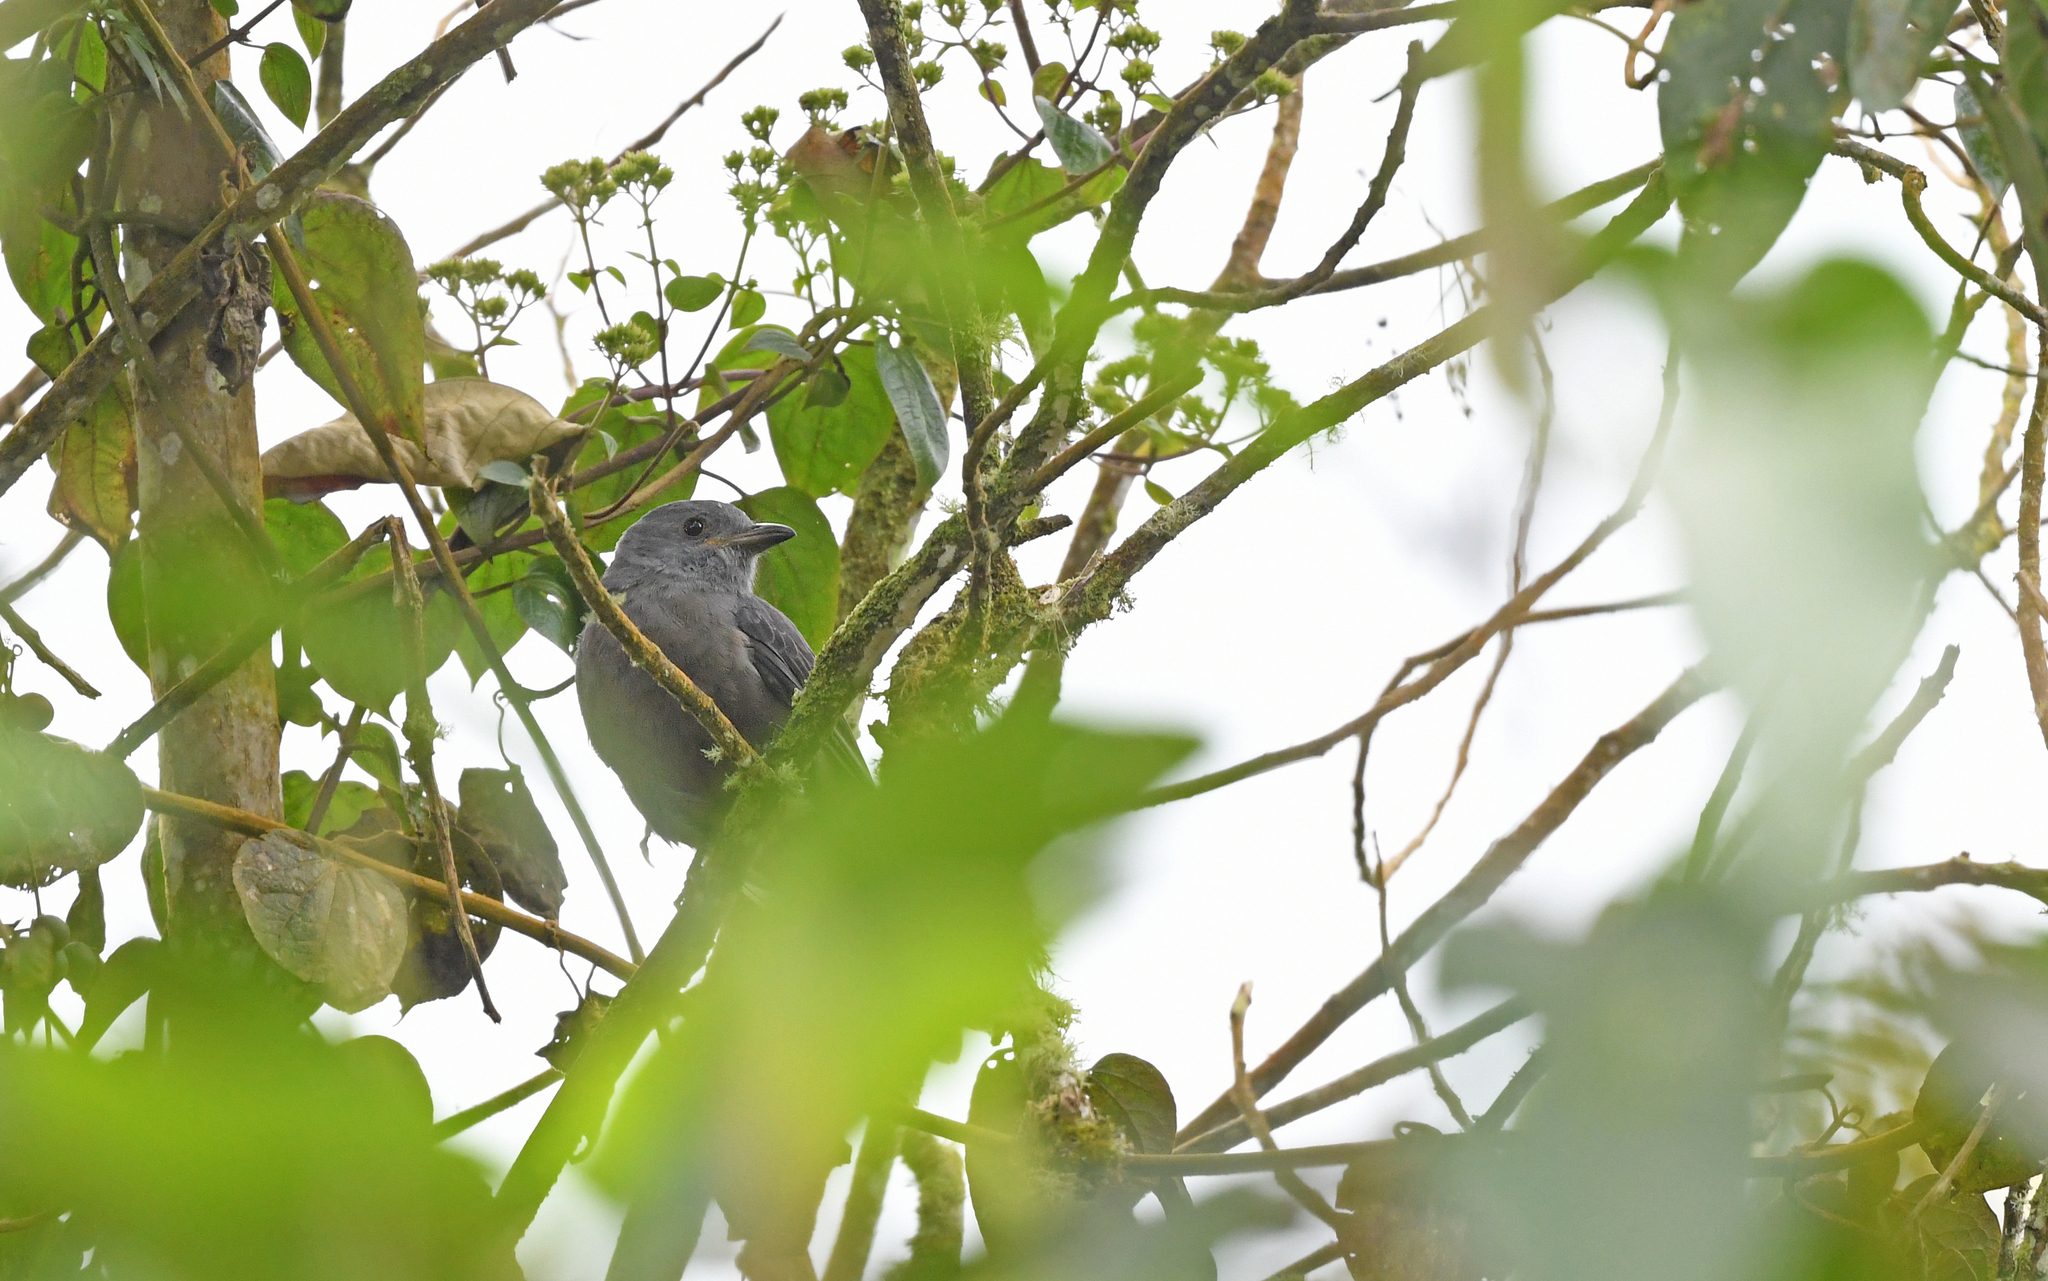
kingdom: Animalia
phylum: Chordata
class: Aves
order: Passeriformes
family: Cotingidae
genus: Lipaugus
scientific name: Lipaugus fuscocinereus
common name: Dusky piha
